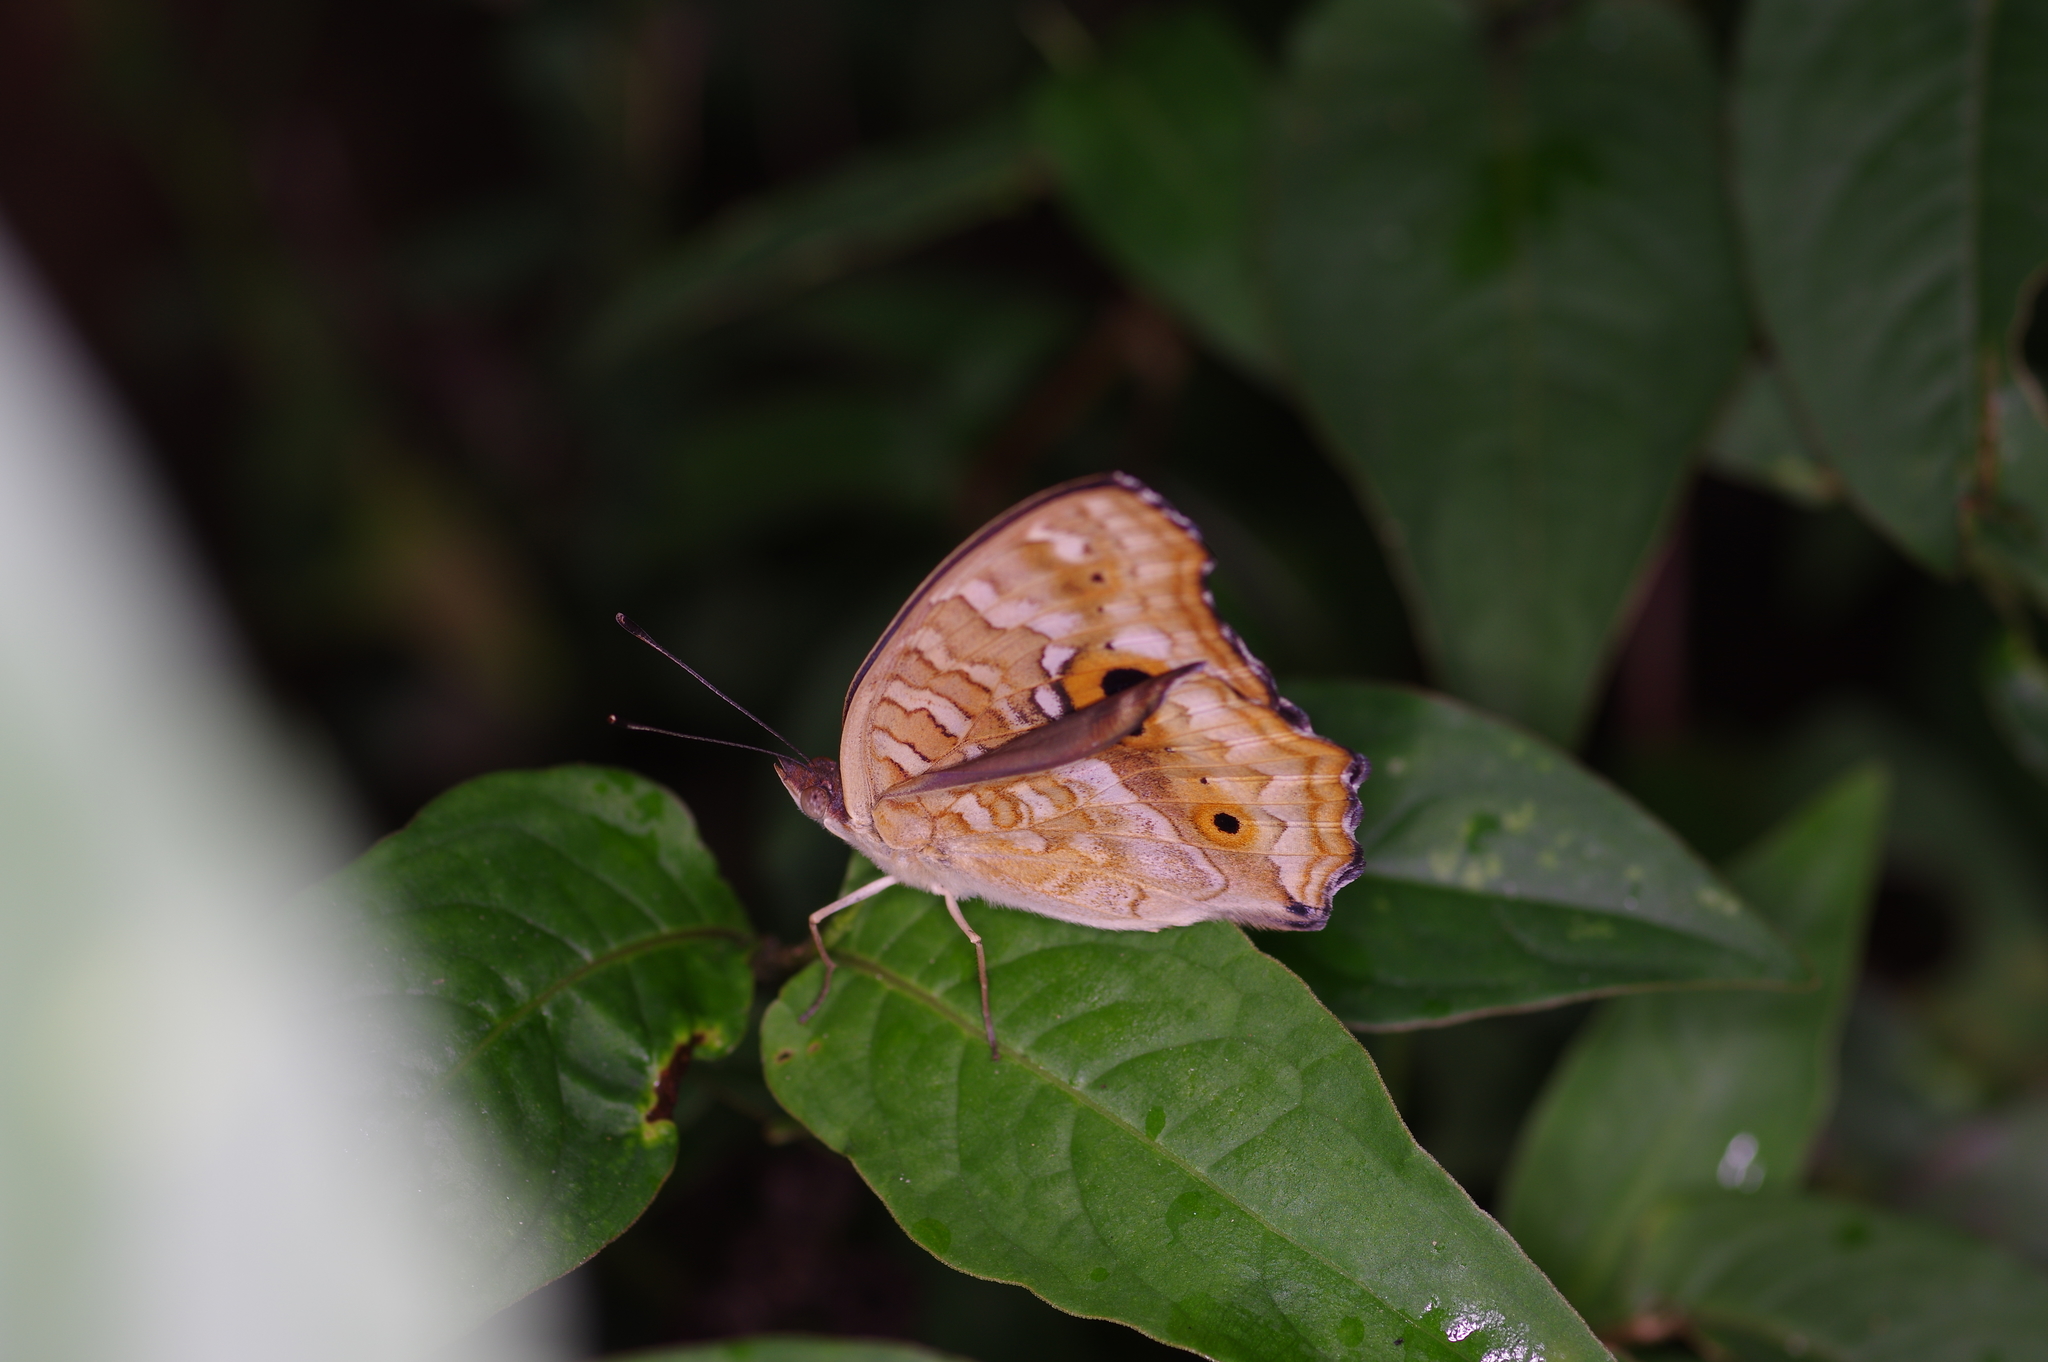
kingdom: Animalia
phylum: Arthropoda
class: Insecta
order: Lepidoptera
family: Nymphalidae
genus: Junonia
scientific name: Junonia orithya
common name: Blue pansy
